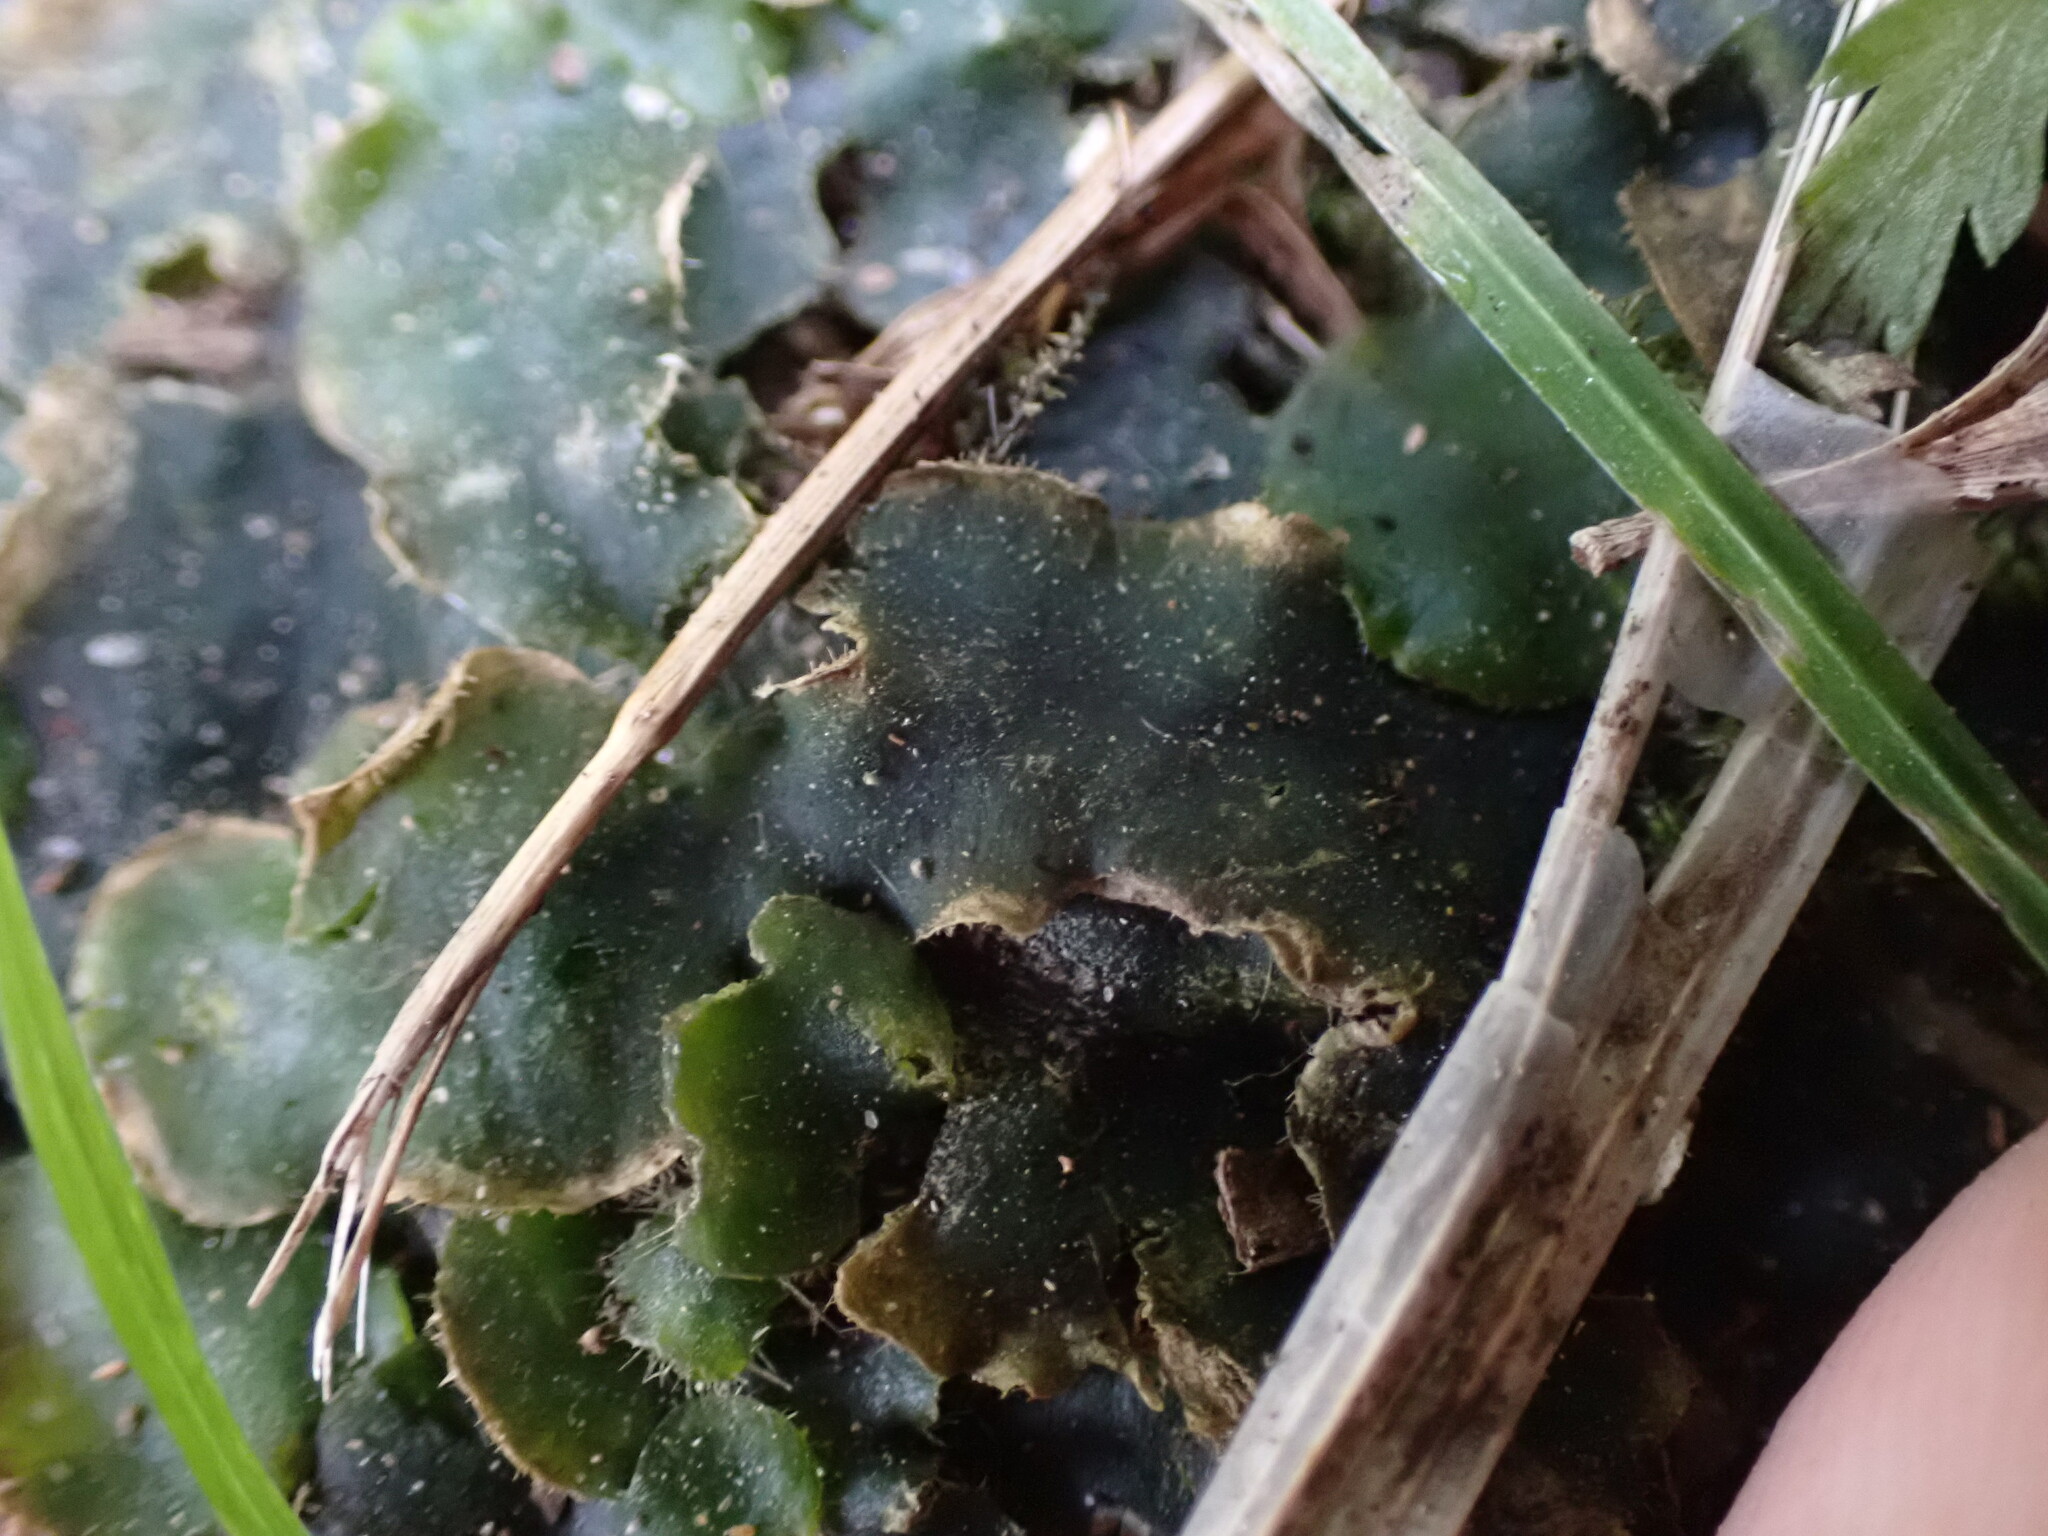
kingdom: Plantae
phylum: Marchantiophyta
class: Marchantiopsida
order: Marchantiales
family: Dumortieraceae
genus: Dumortiera
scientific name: Dumortiera hirsuta
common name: Dumortier's liverwort
